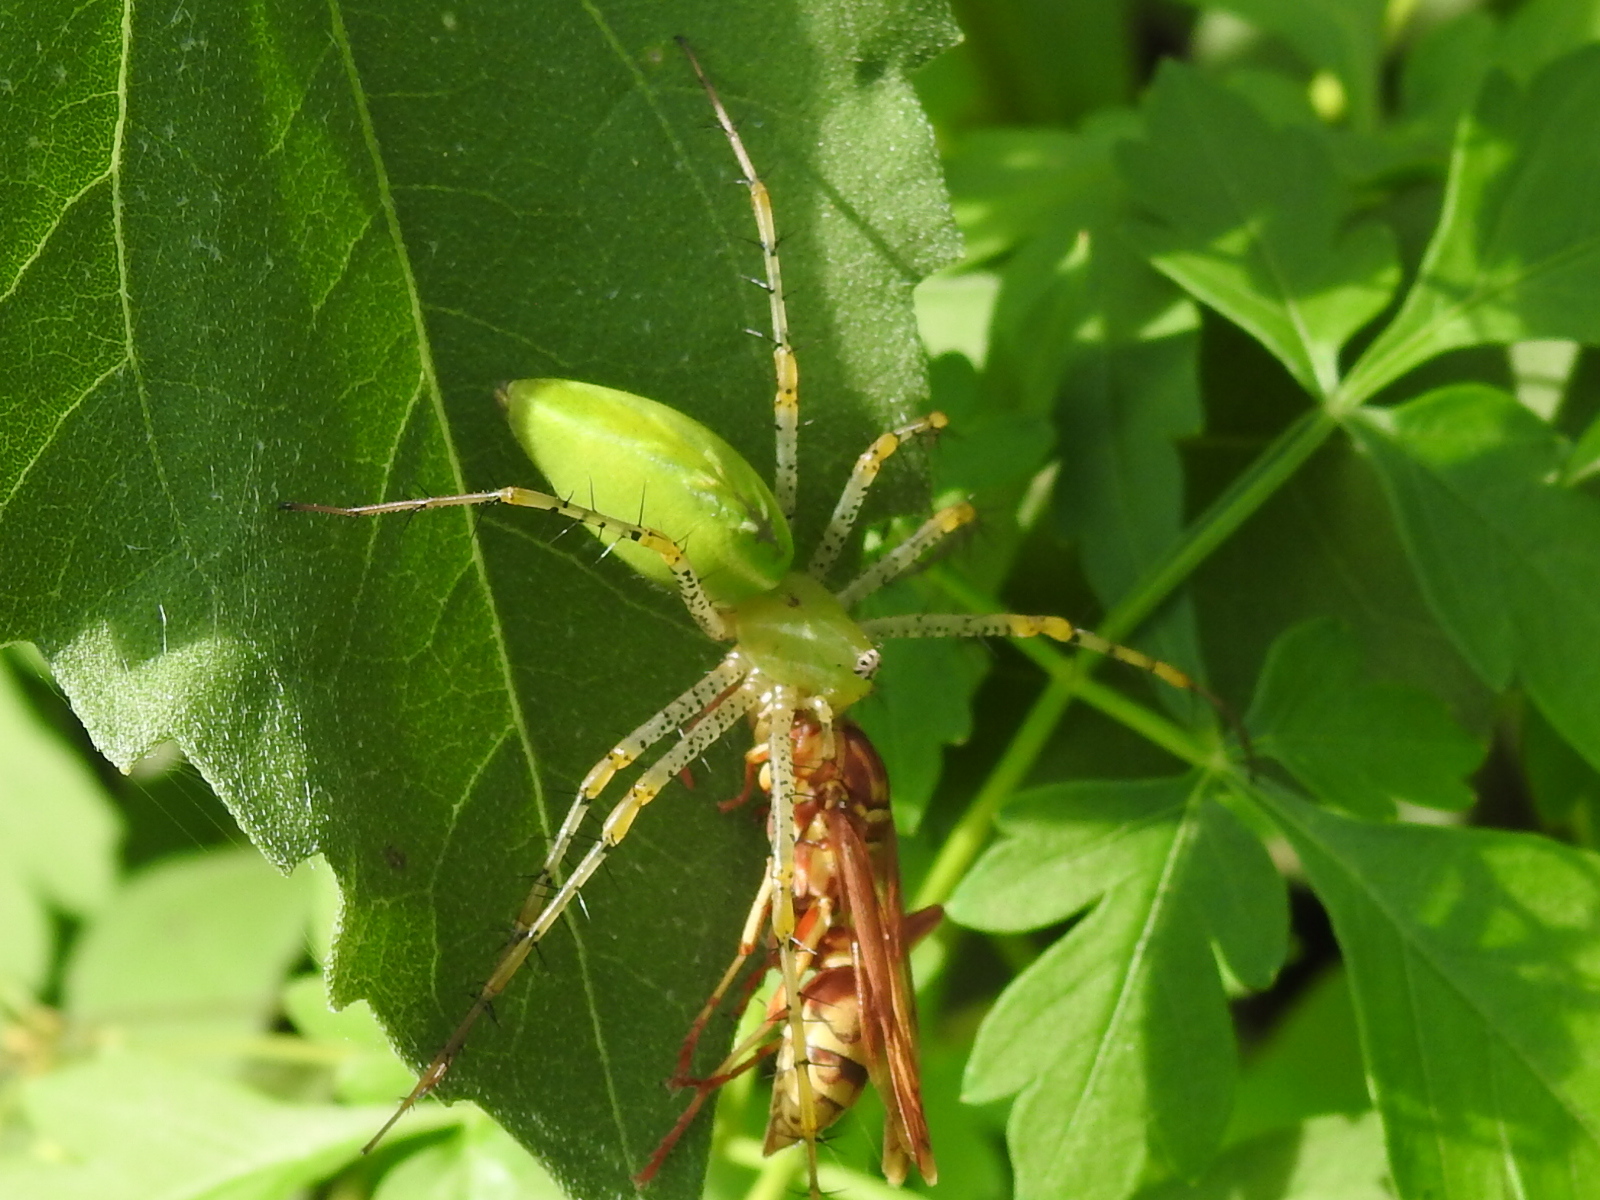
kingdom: Animalia
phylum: Arthropoda
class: Arachnida
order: Araneae
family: Oxyopidae
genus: Peucetia
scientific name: Peucetia viridans
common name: Lynx spiders
